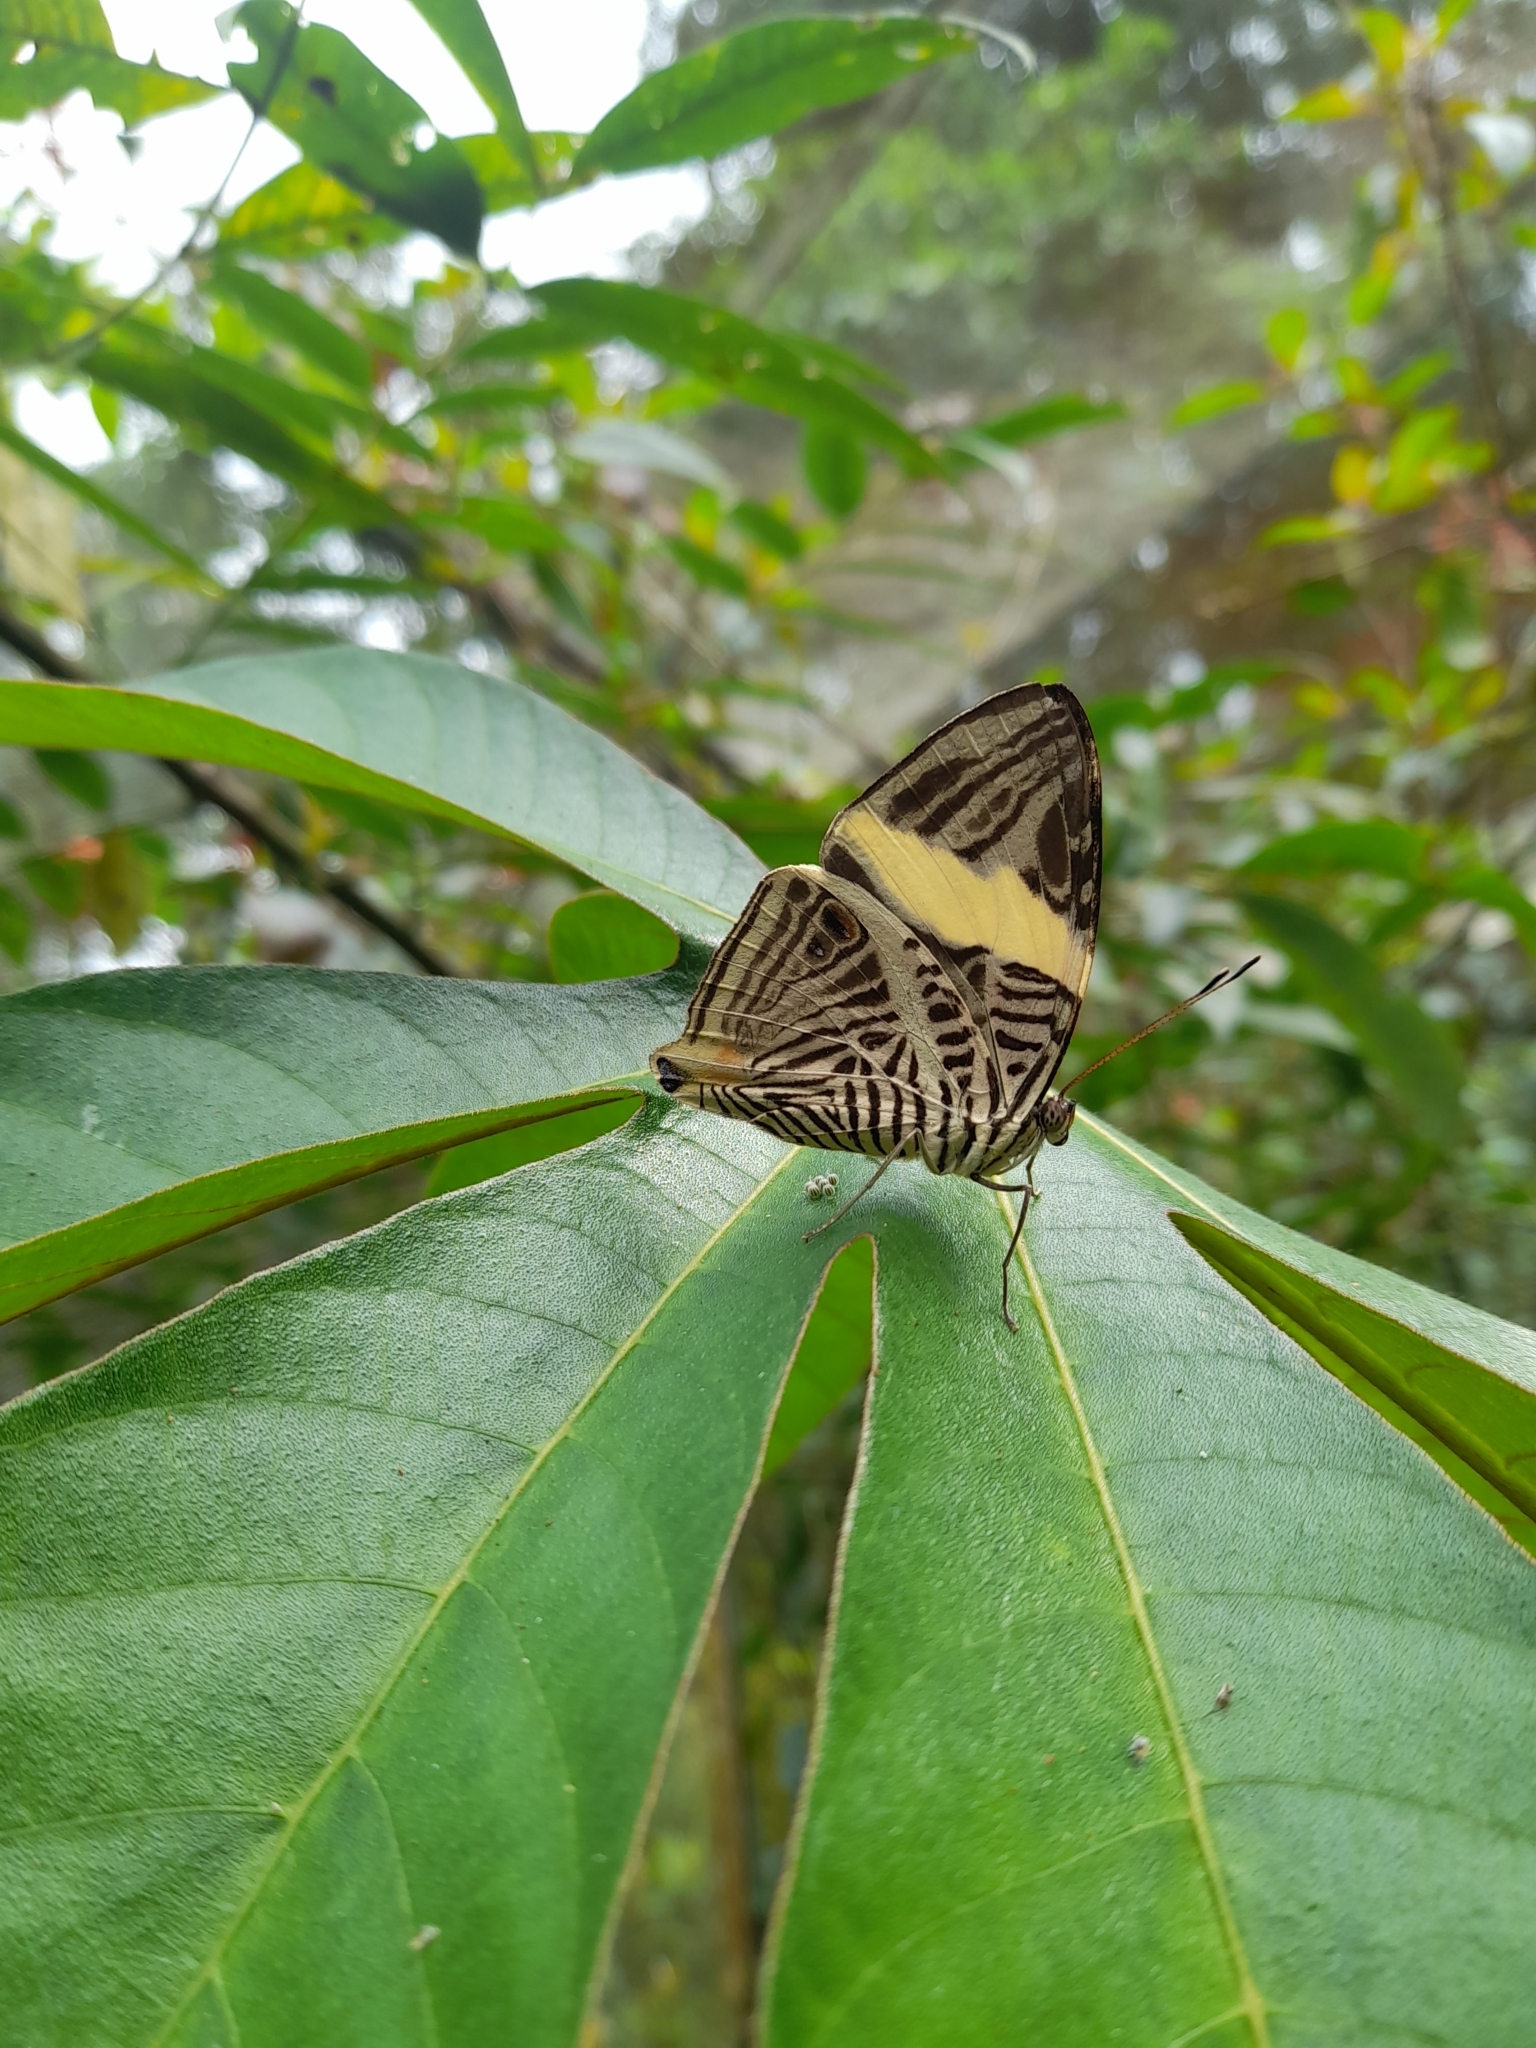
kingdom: Animalia
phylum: Arthropoda
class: Insecta
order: Lepidoptera
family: Nymphalidae
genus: Colobura
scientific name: Colobura dirce
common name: Dirce beauty
